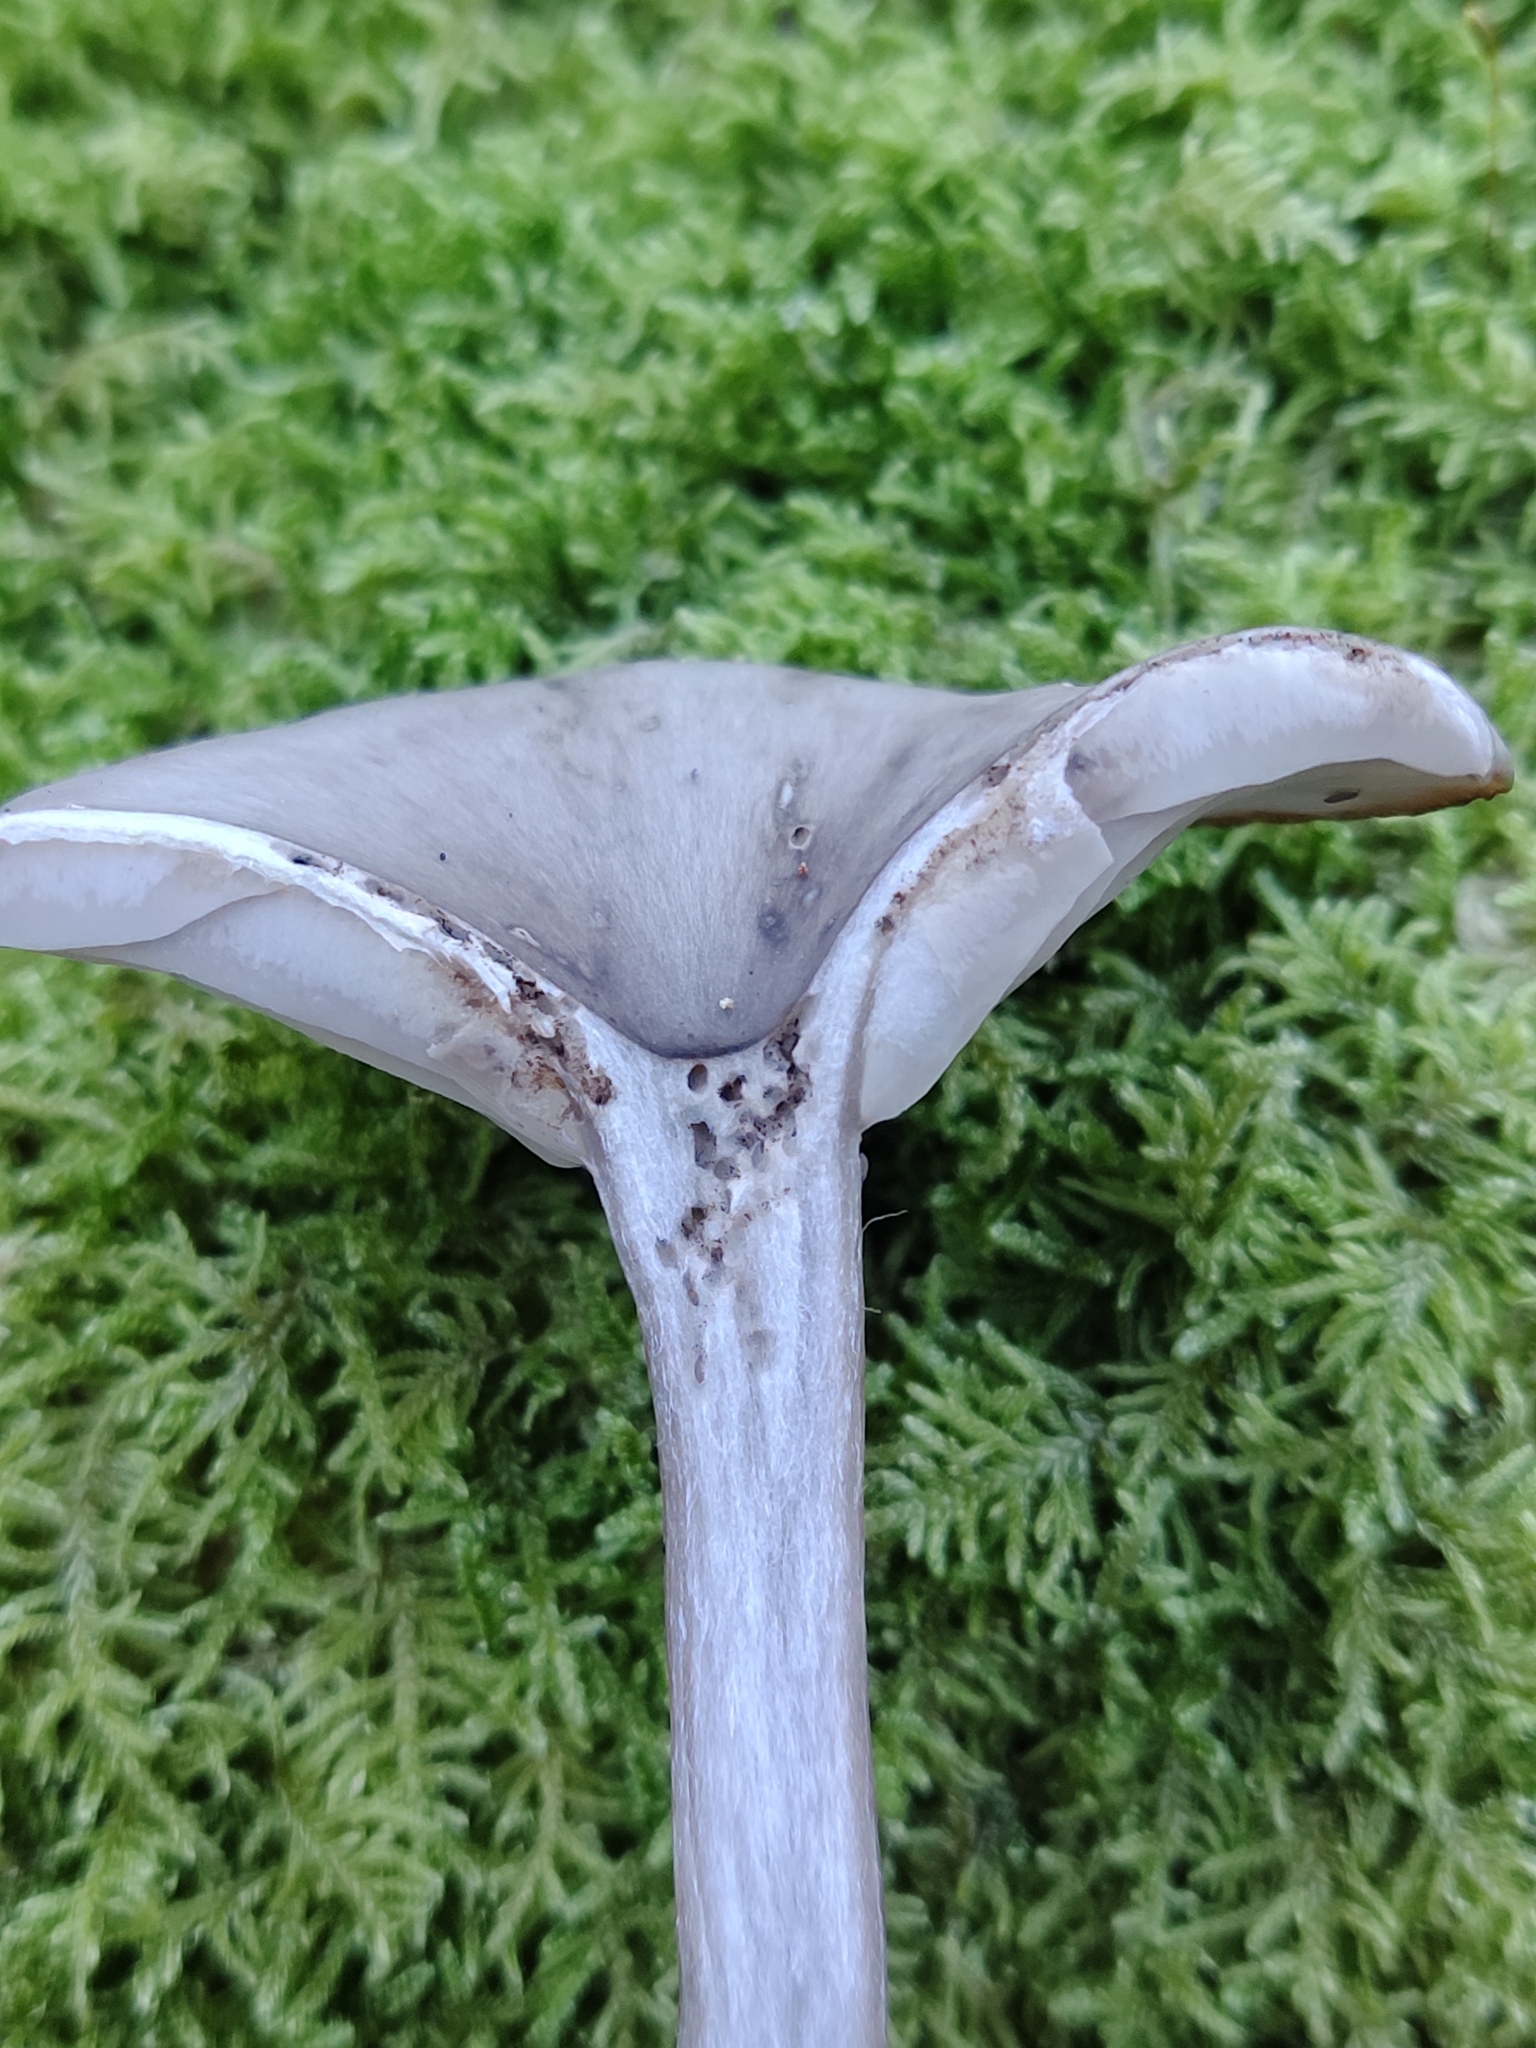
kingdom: Fungi
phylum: Basidiomycota
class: Agaricomycetes
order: Agaricales
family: Pseudoclitocybaceae
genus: Pseudoclitocybe
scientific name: Pseudoclitocybe cyathiformis
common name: Goblet
